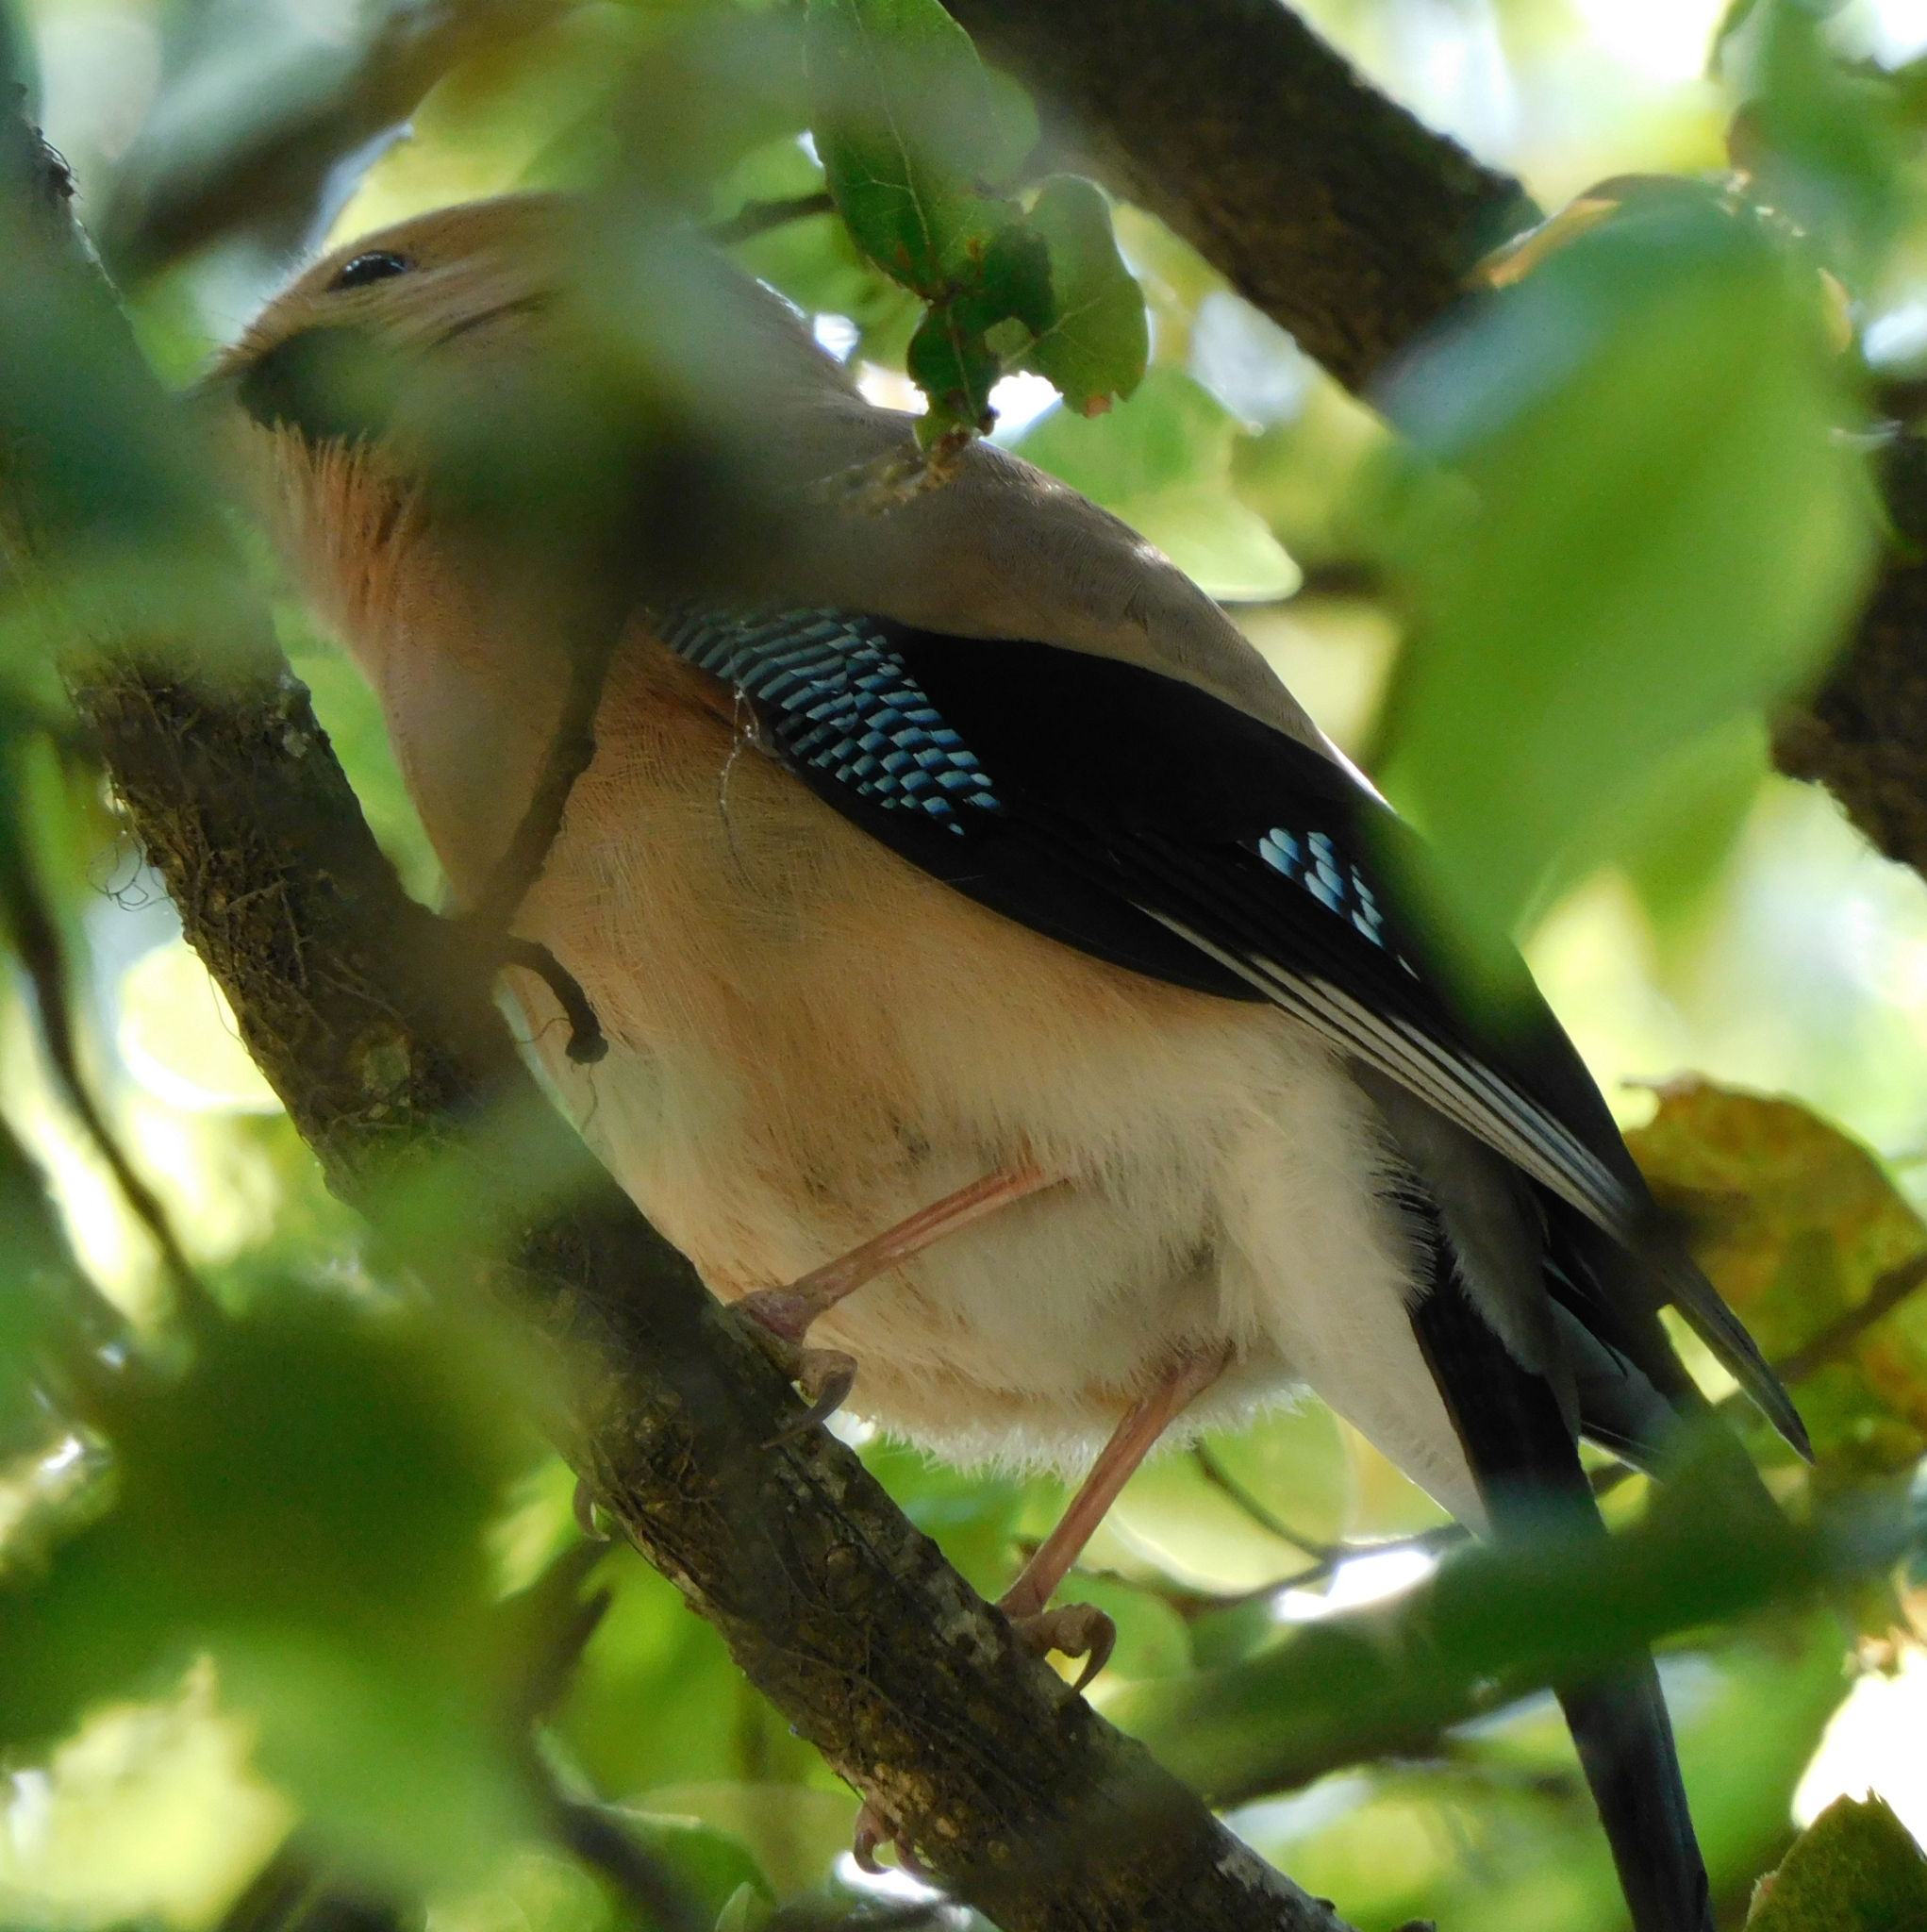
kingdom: Animalia
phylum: Chordata
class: Aves
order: Passeriformes
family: Corvidae
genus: Garrulus
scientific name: Garrulus glandarius
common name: Eurasian jay
